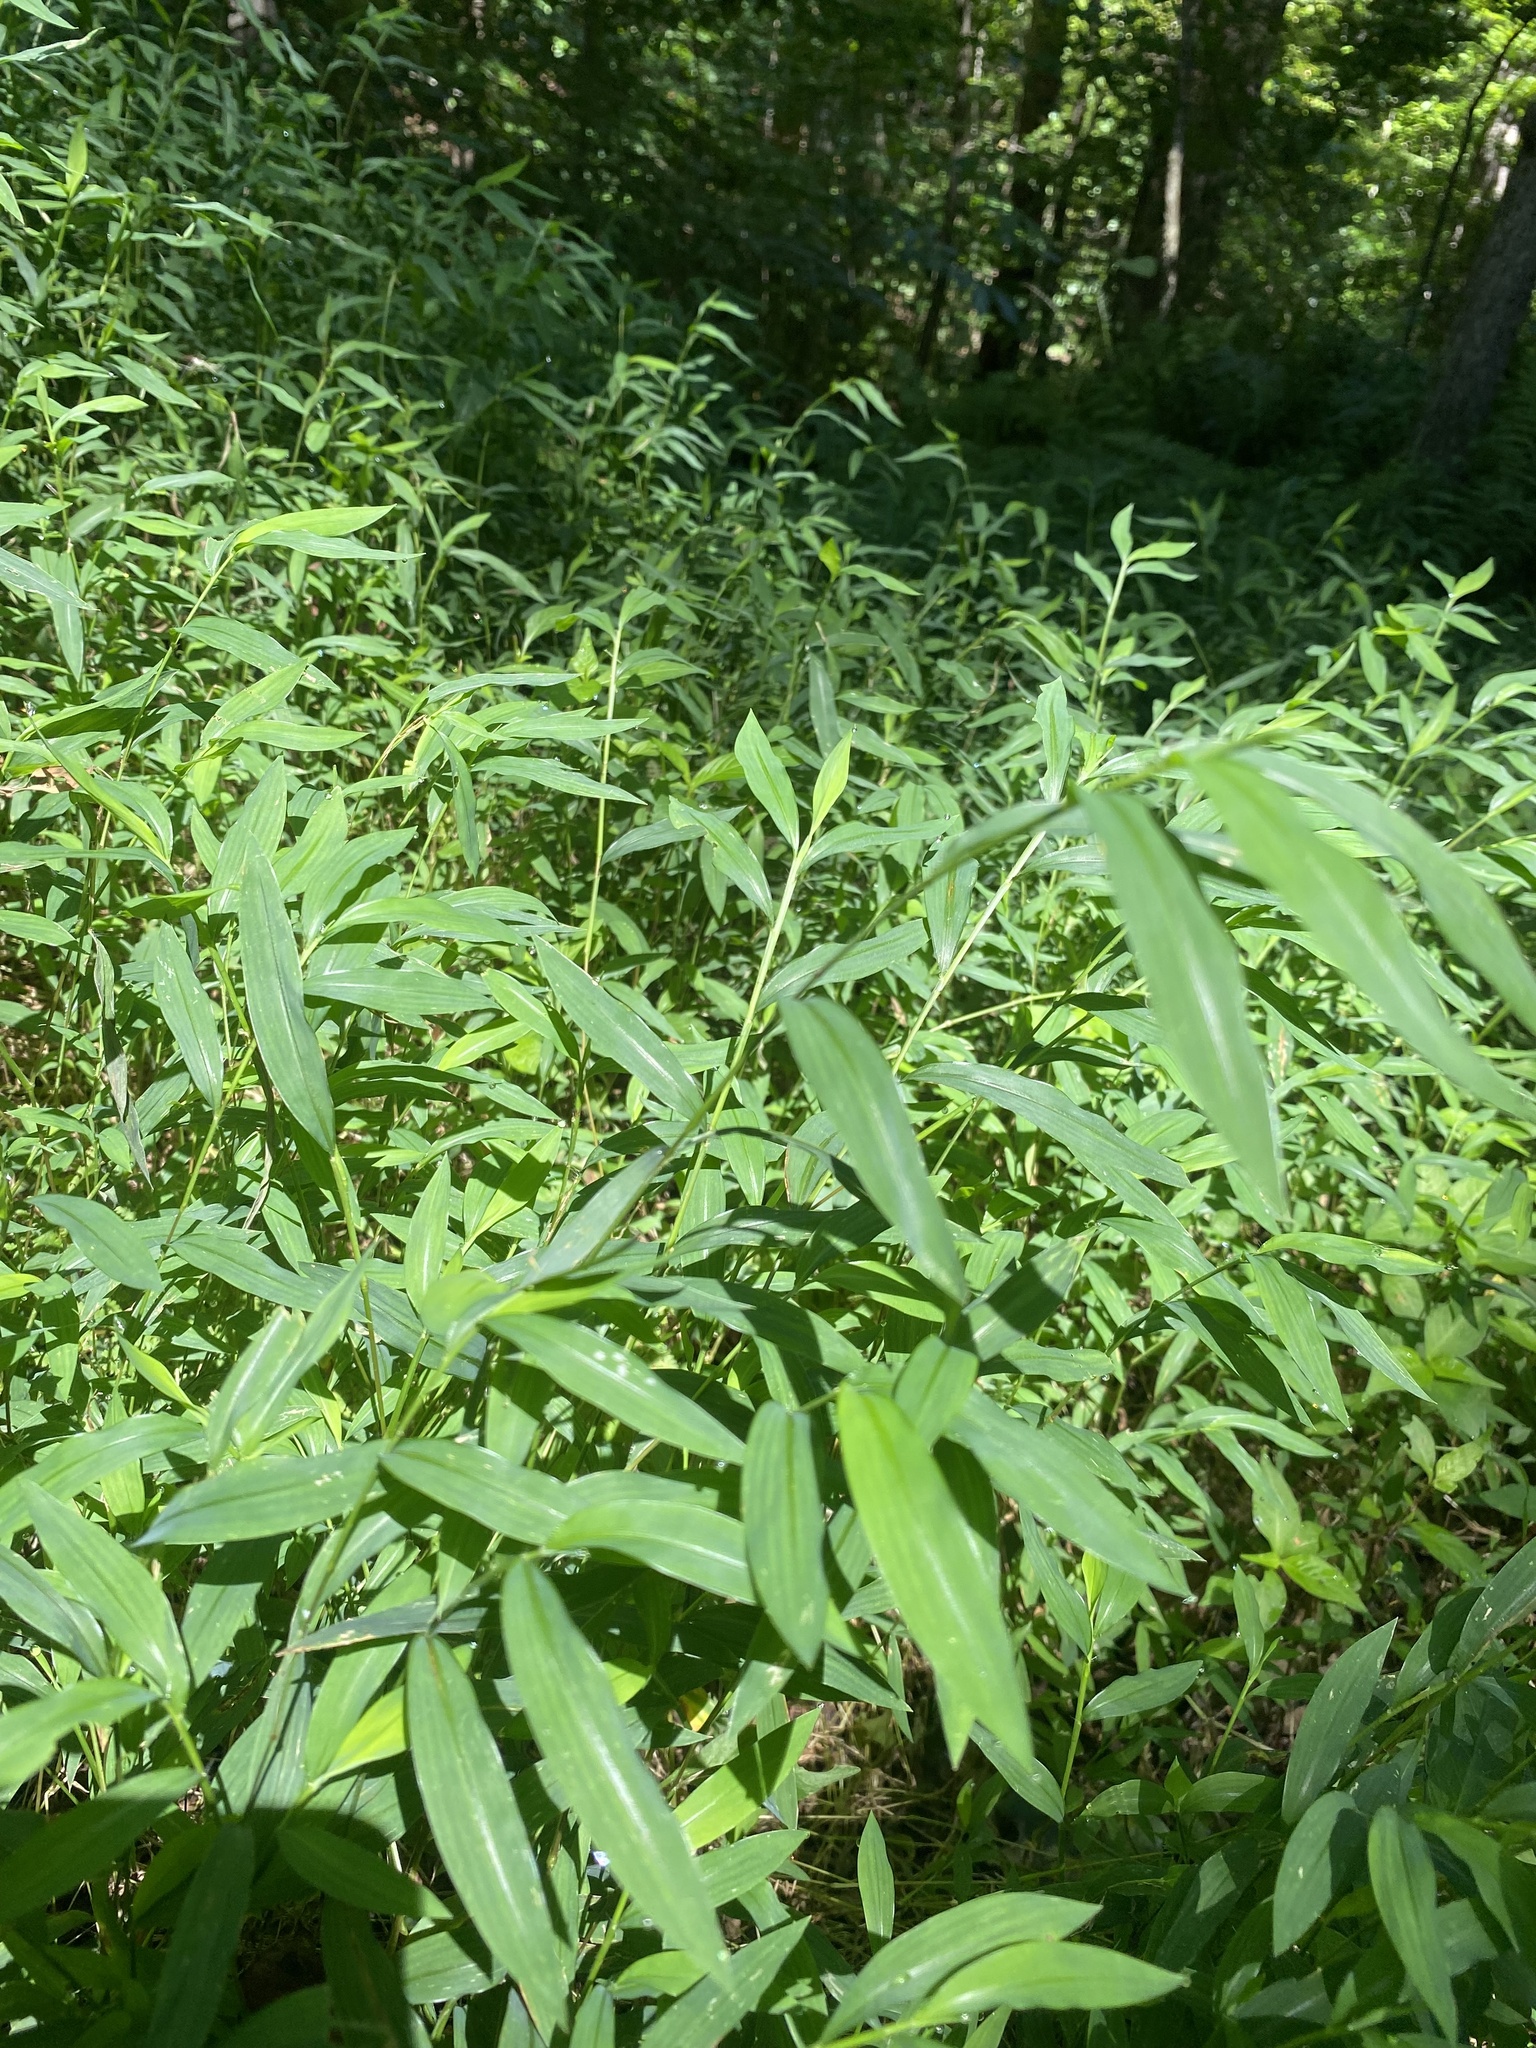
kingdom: Plantae
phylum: Tracheophyta
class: Liliopsida
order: Poales
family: Poaceae
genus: Microstegium
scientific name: Microstegium vimineum
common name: Japanese stiltgrass
